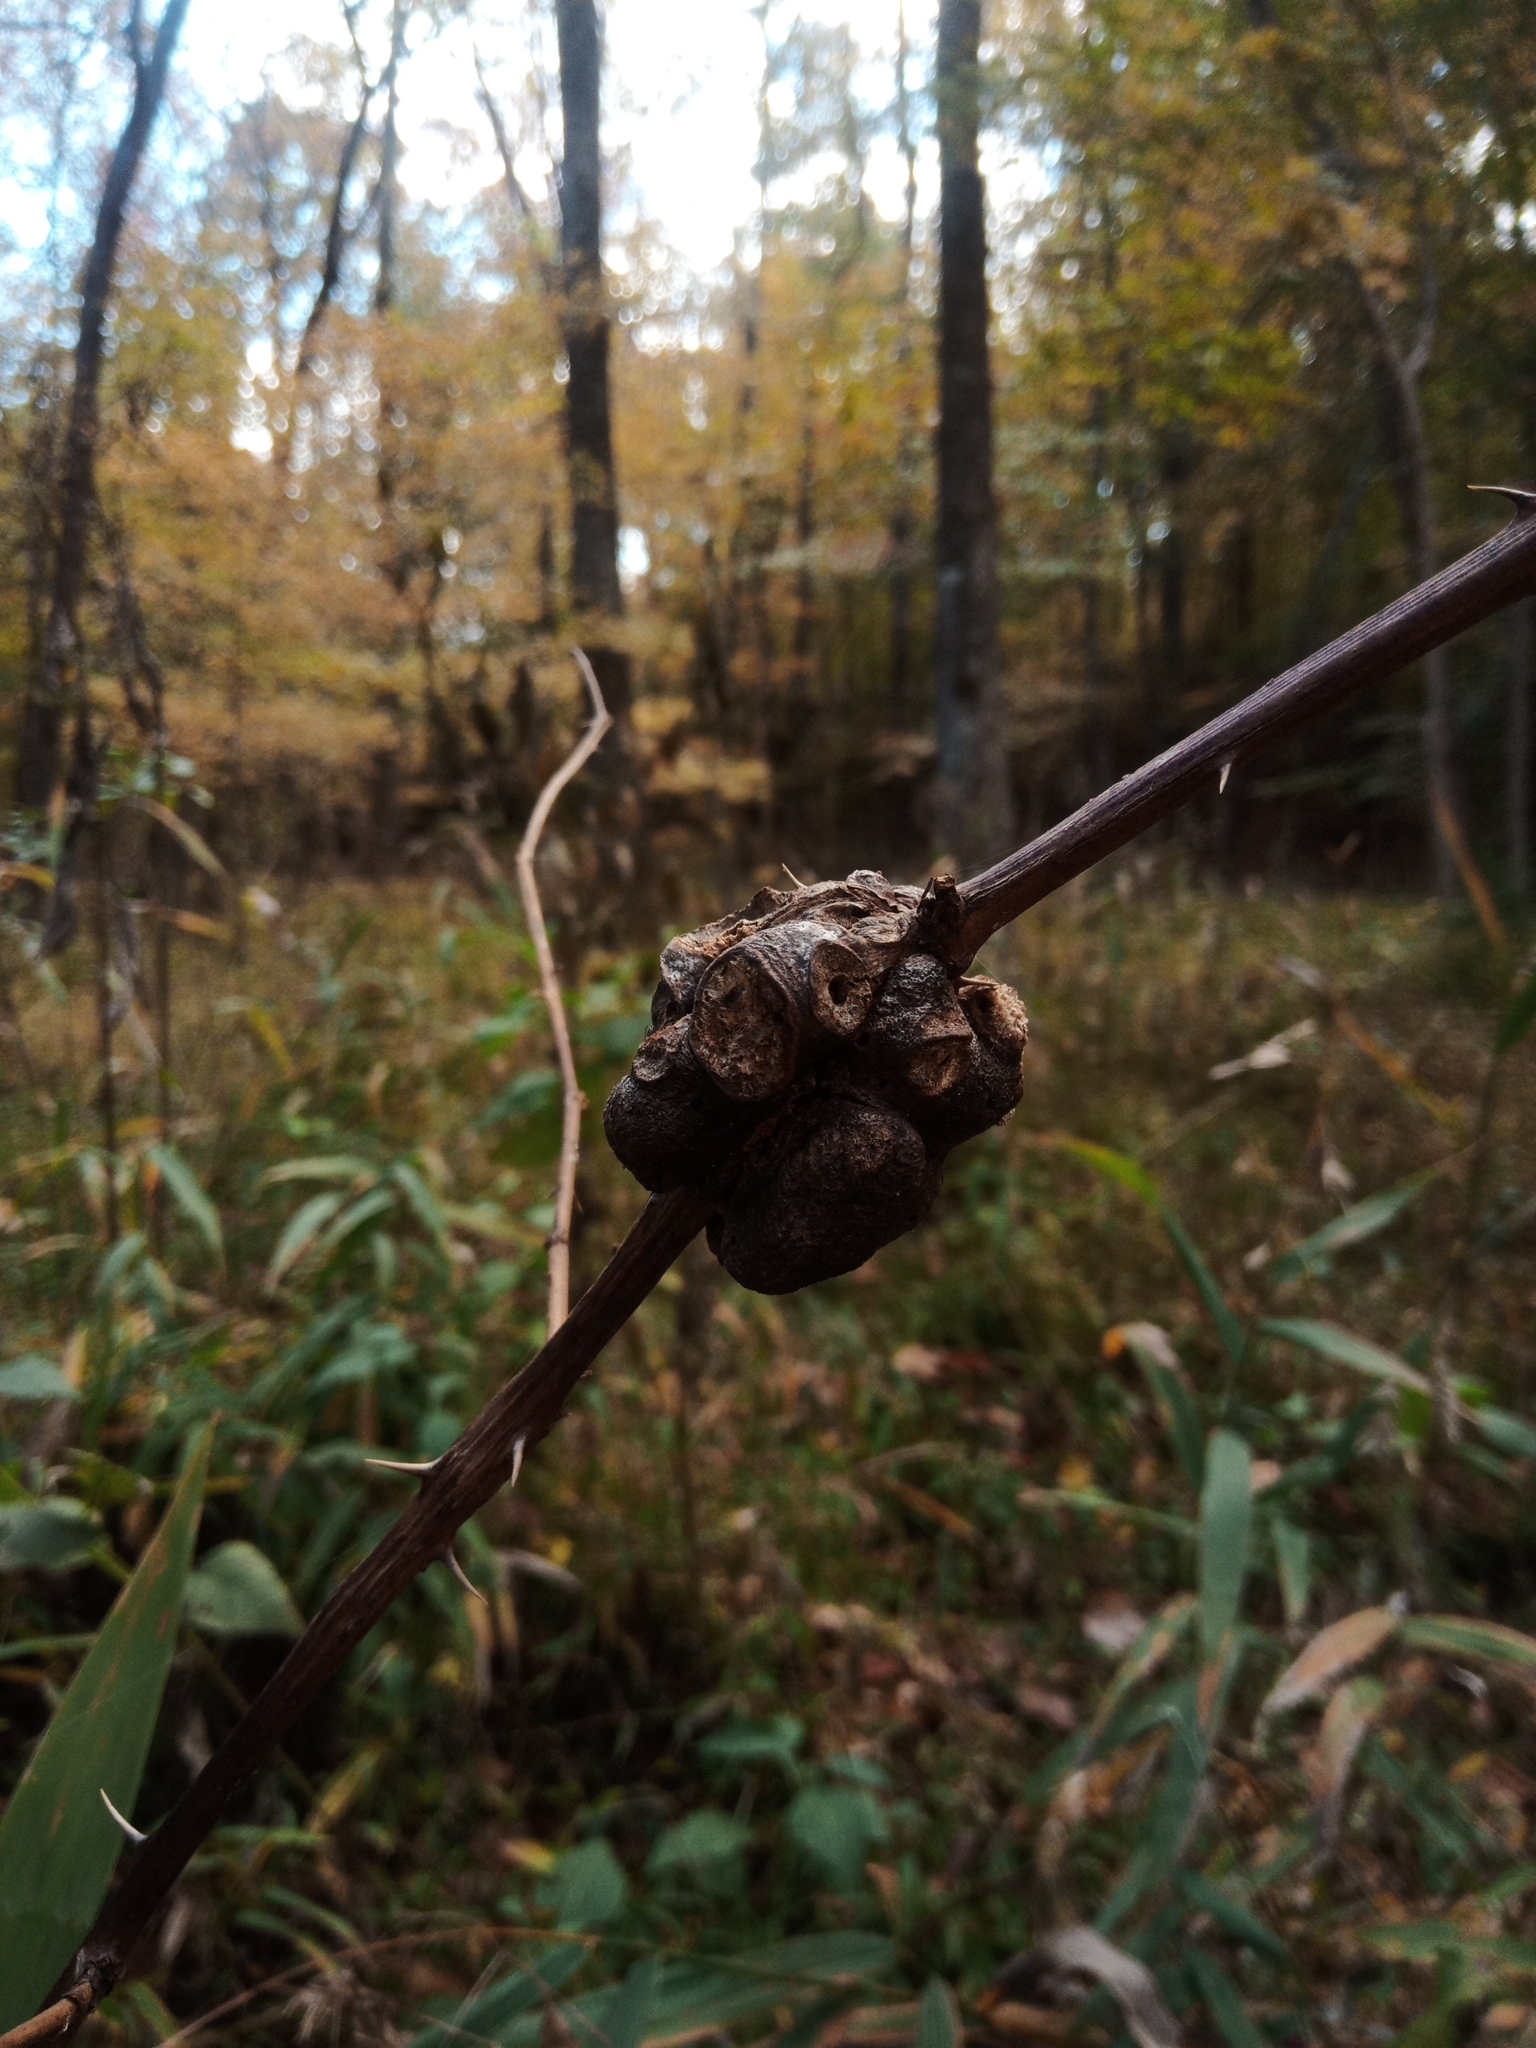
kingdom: Animalia
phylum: Arthropoda
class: Insecta
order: Hymenoptera
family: Cynipidae
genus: Diastrophus
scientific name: Diastrophus
